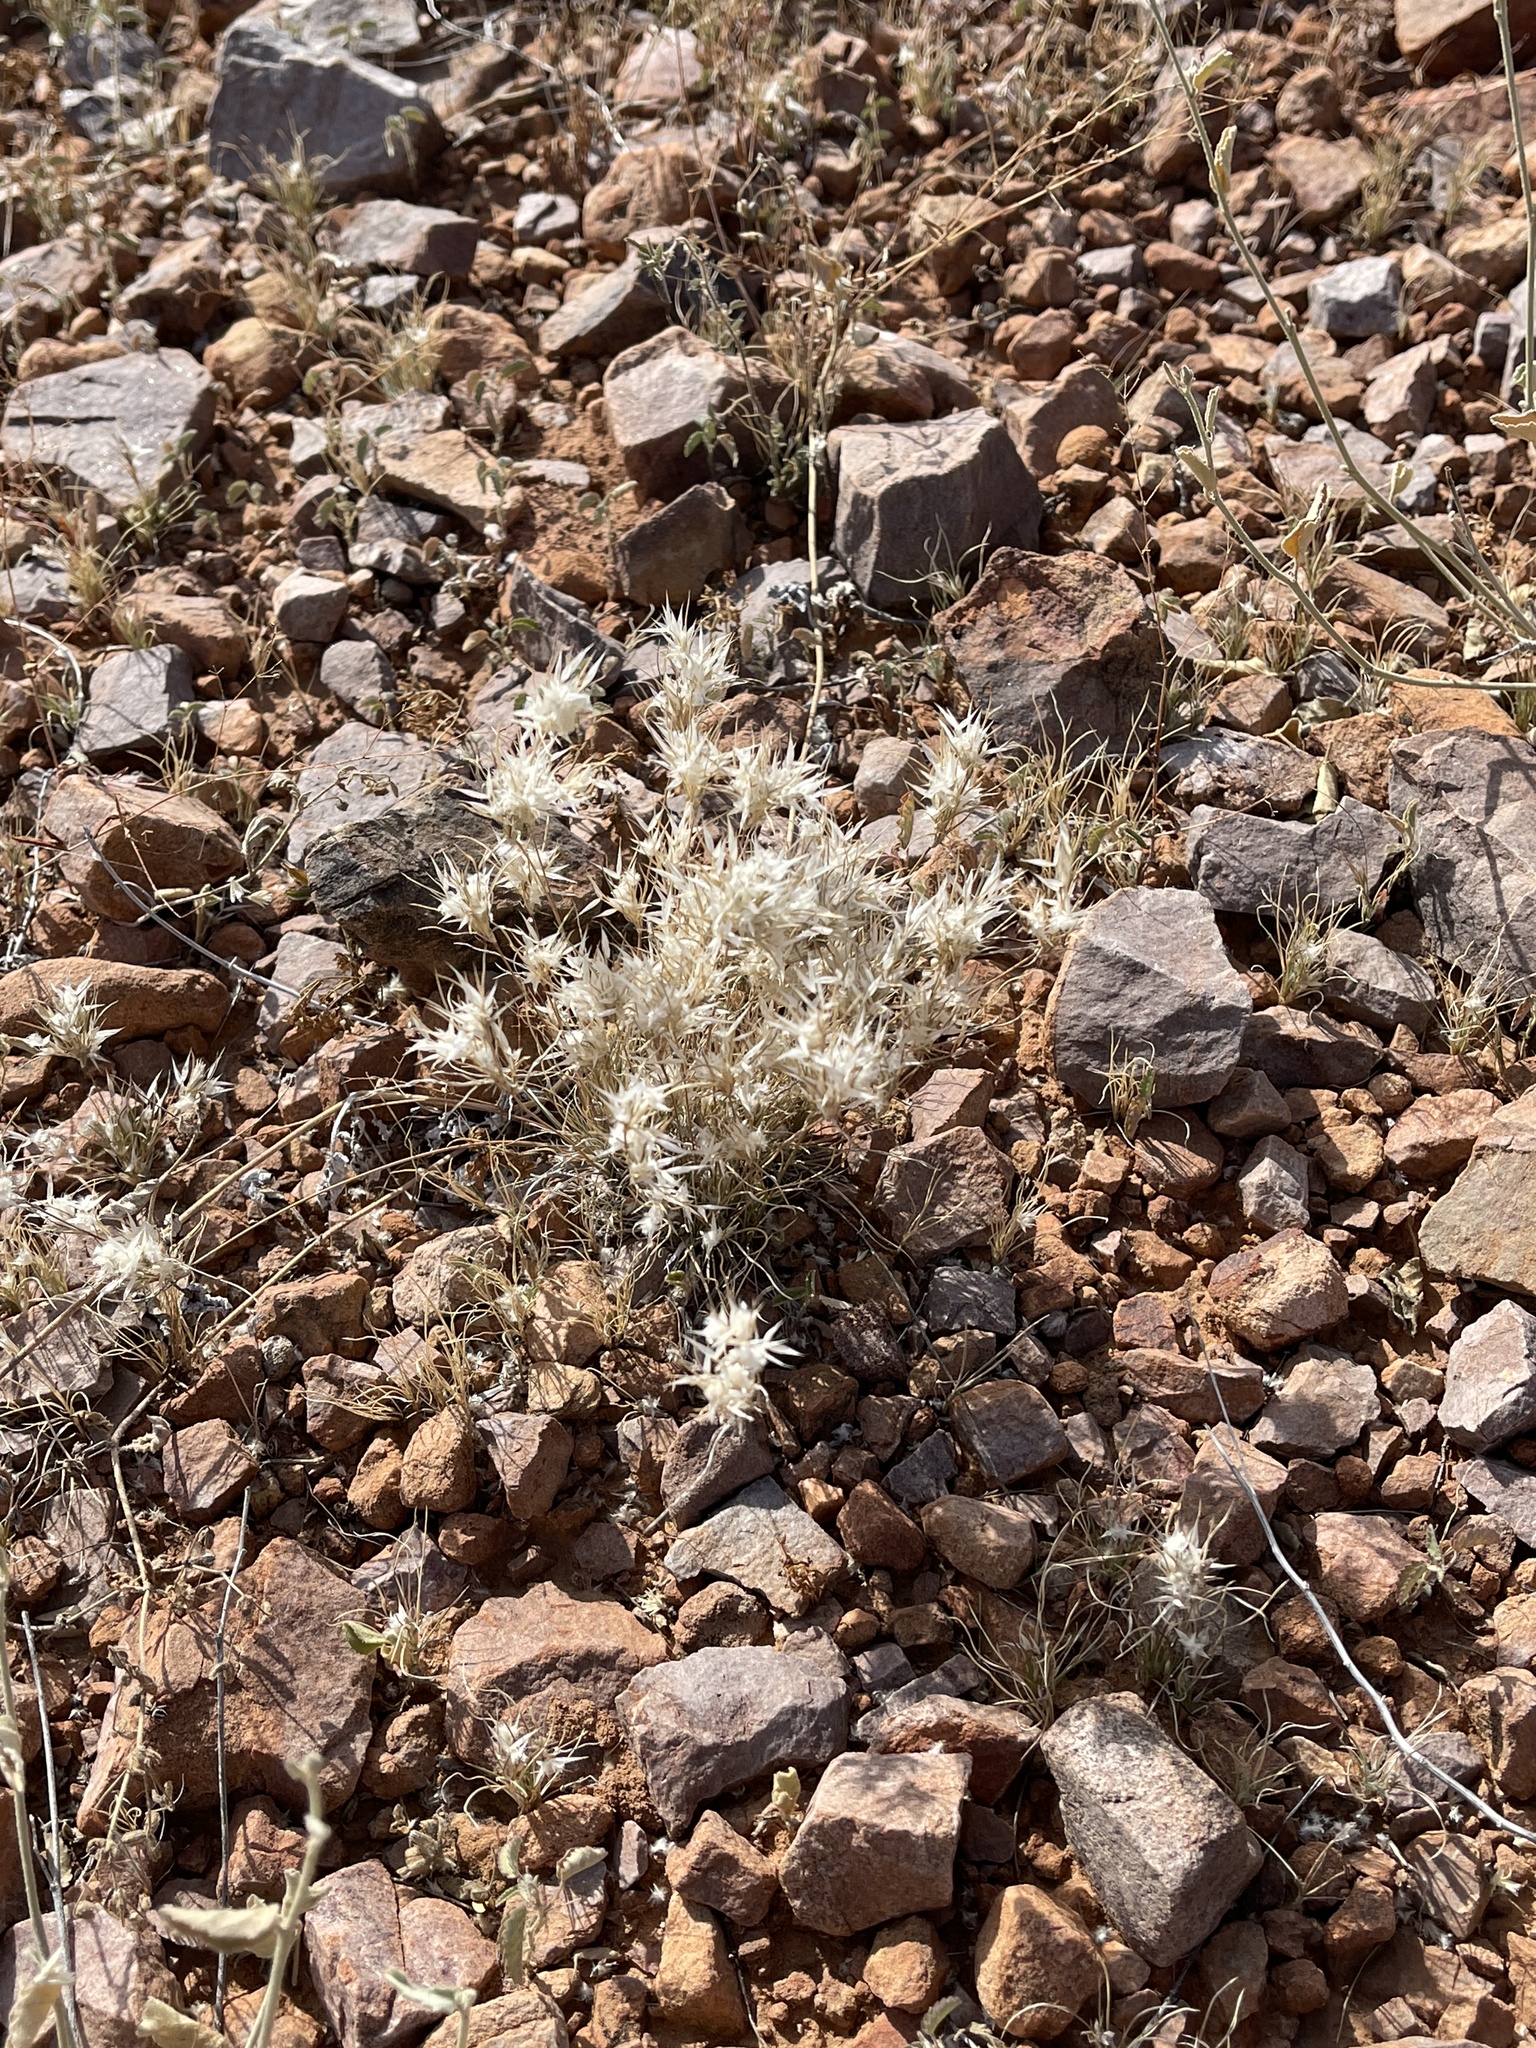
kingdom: Plantae
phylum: Tracheophyta
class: Liliopsida
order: Poales
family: Poaceae
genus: Dasyochloa
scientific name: Dasyochloa pulchella
